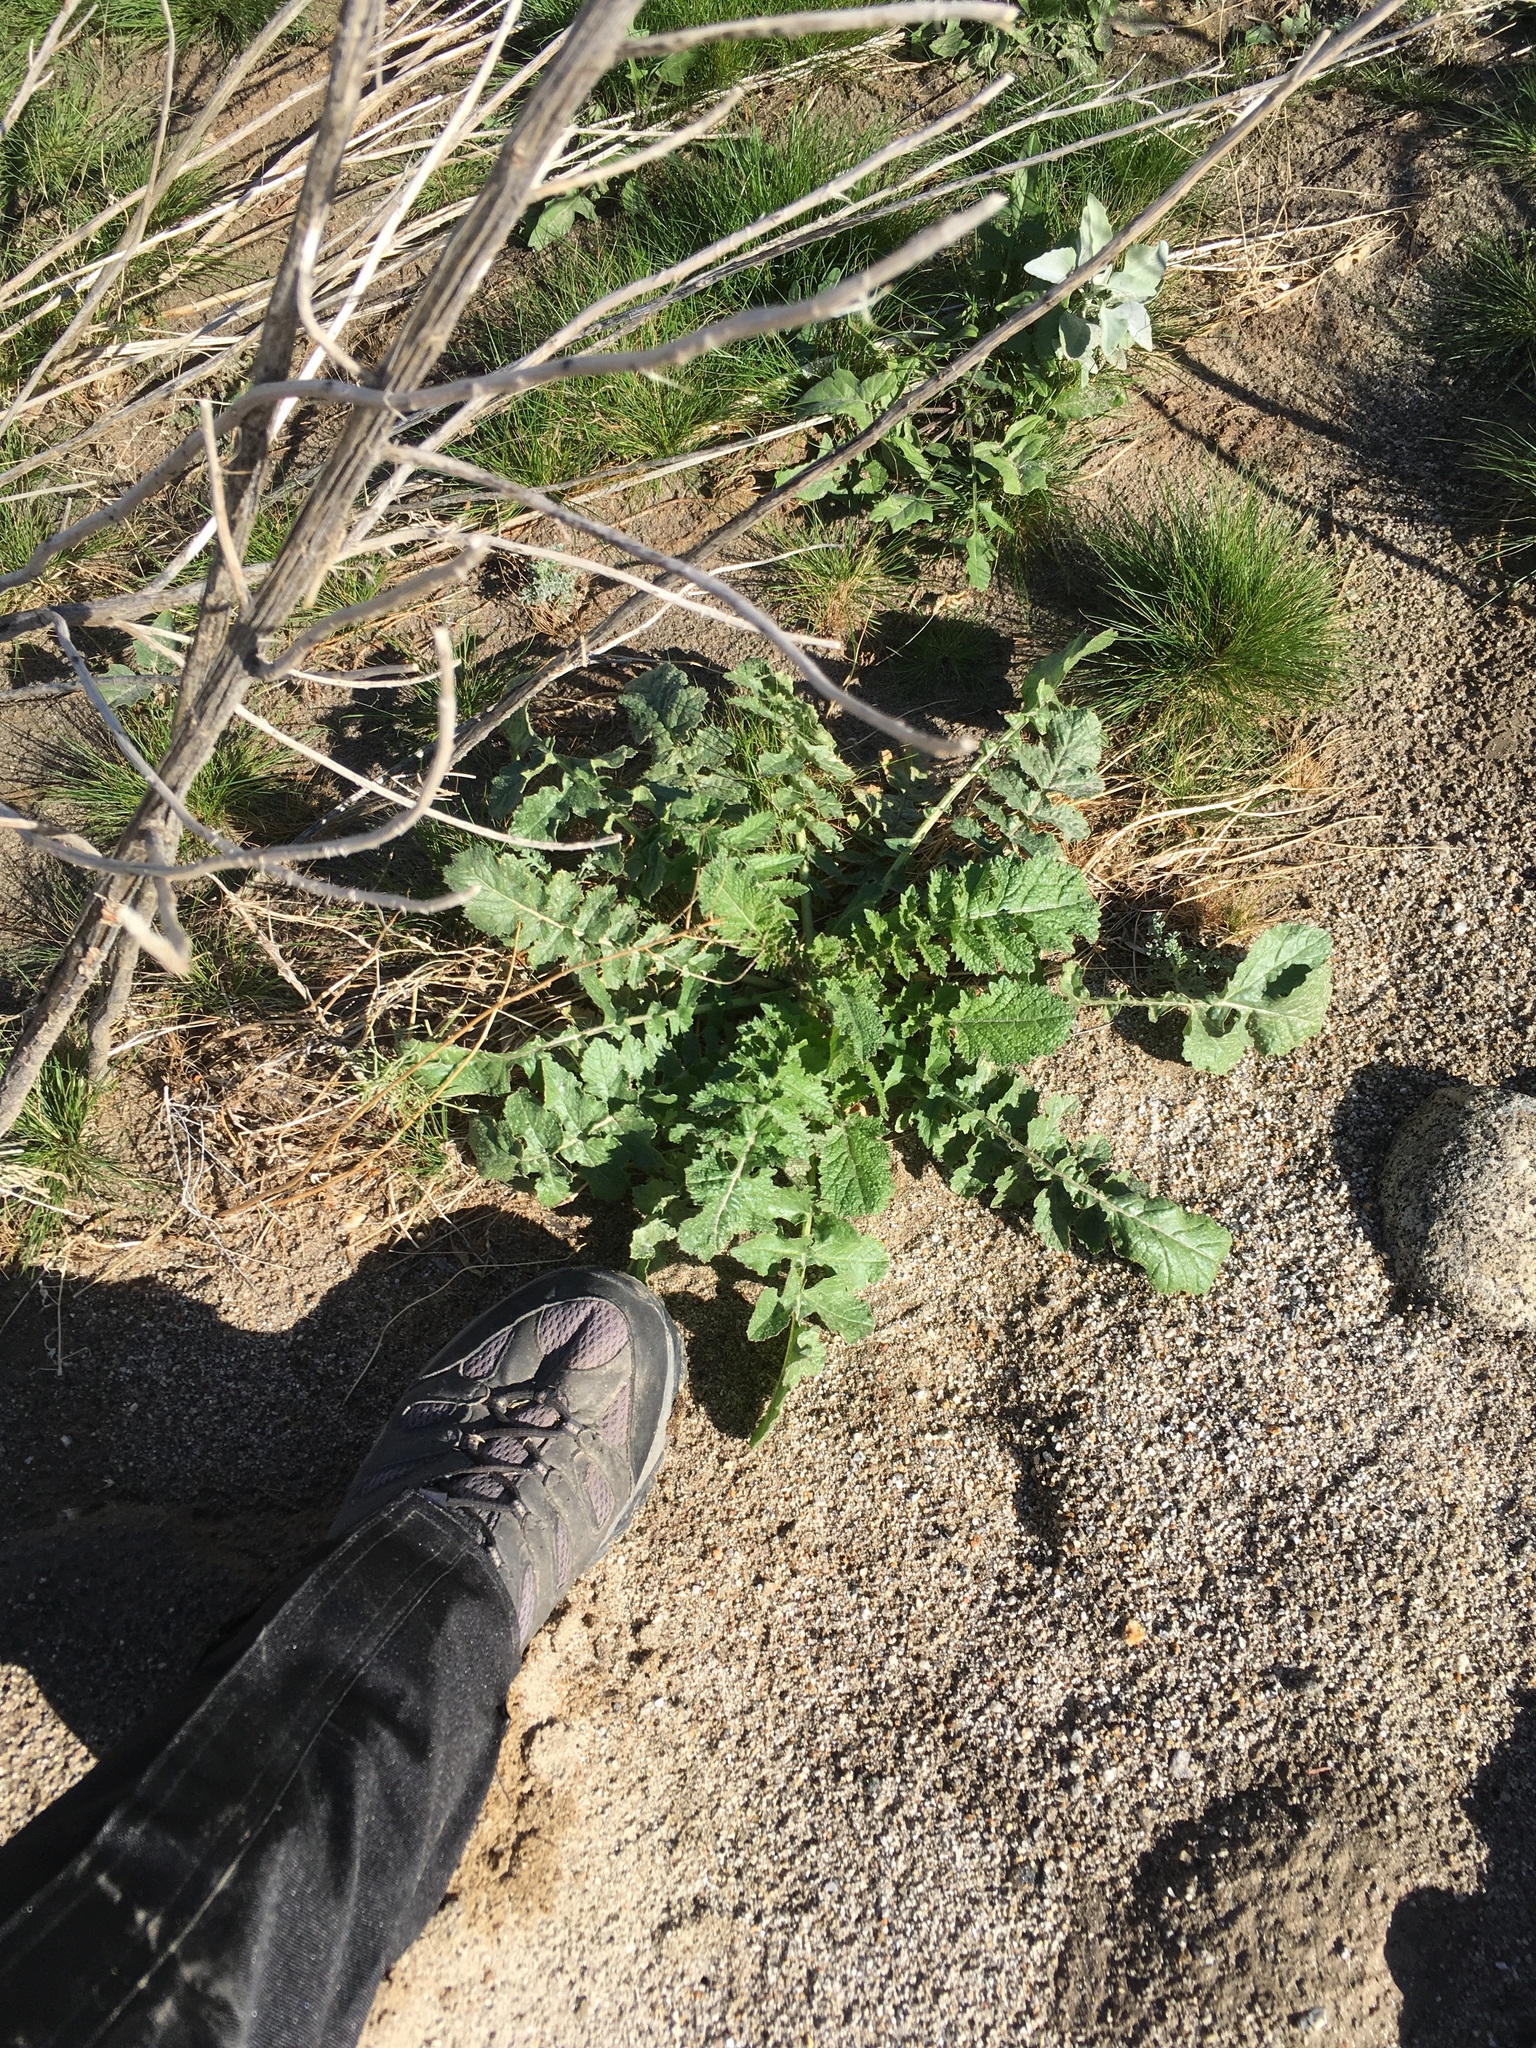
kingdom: Plantae
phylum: Tracheophyta
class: Magnoliopsida
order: Brassicales
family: Brassicaceae
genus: Brassica
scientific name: Brassica tournefortii
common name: Pale cabbage
